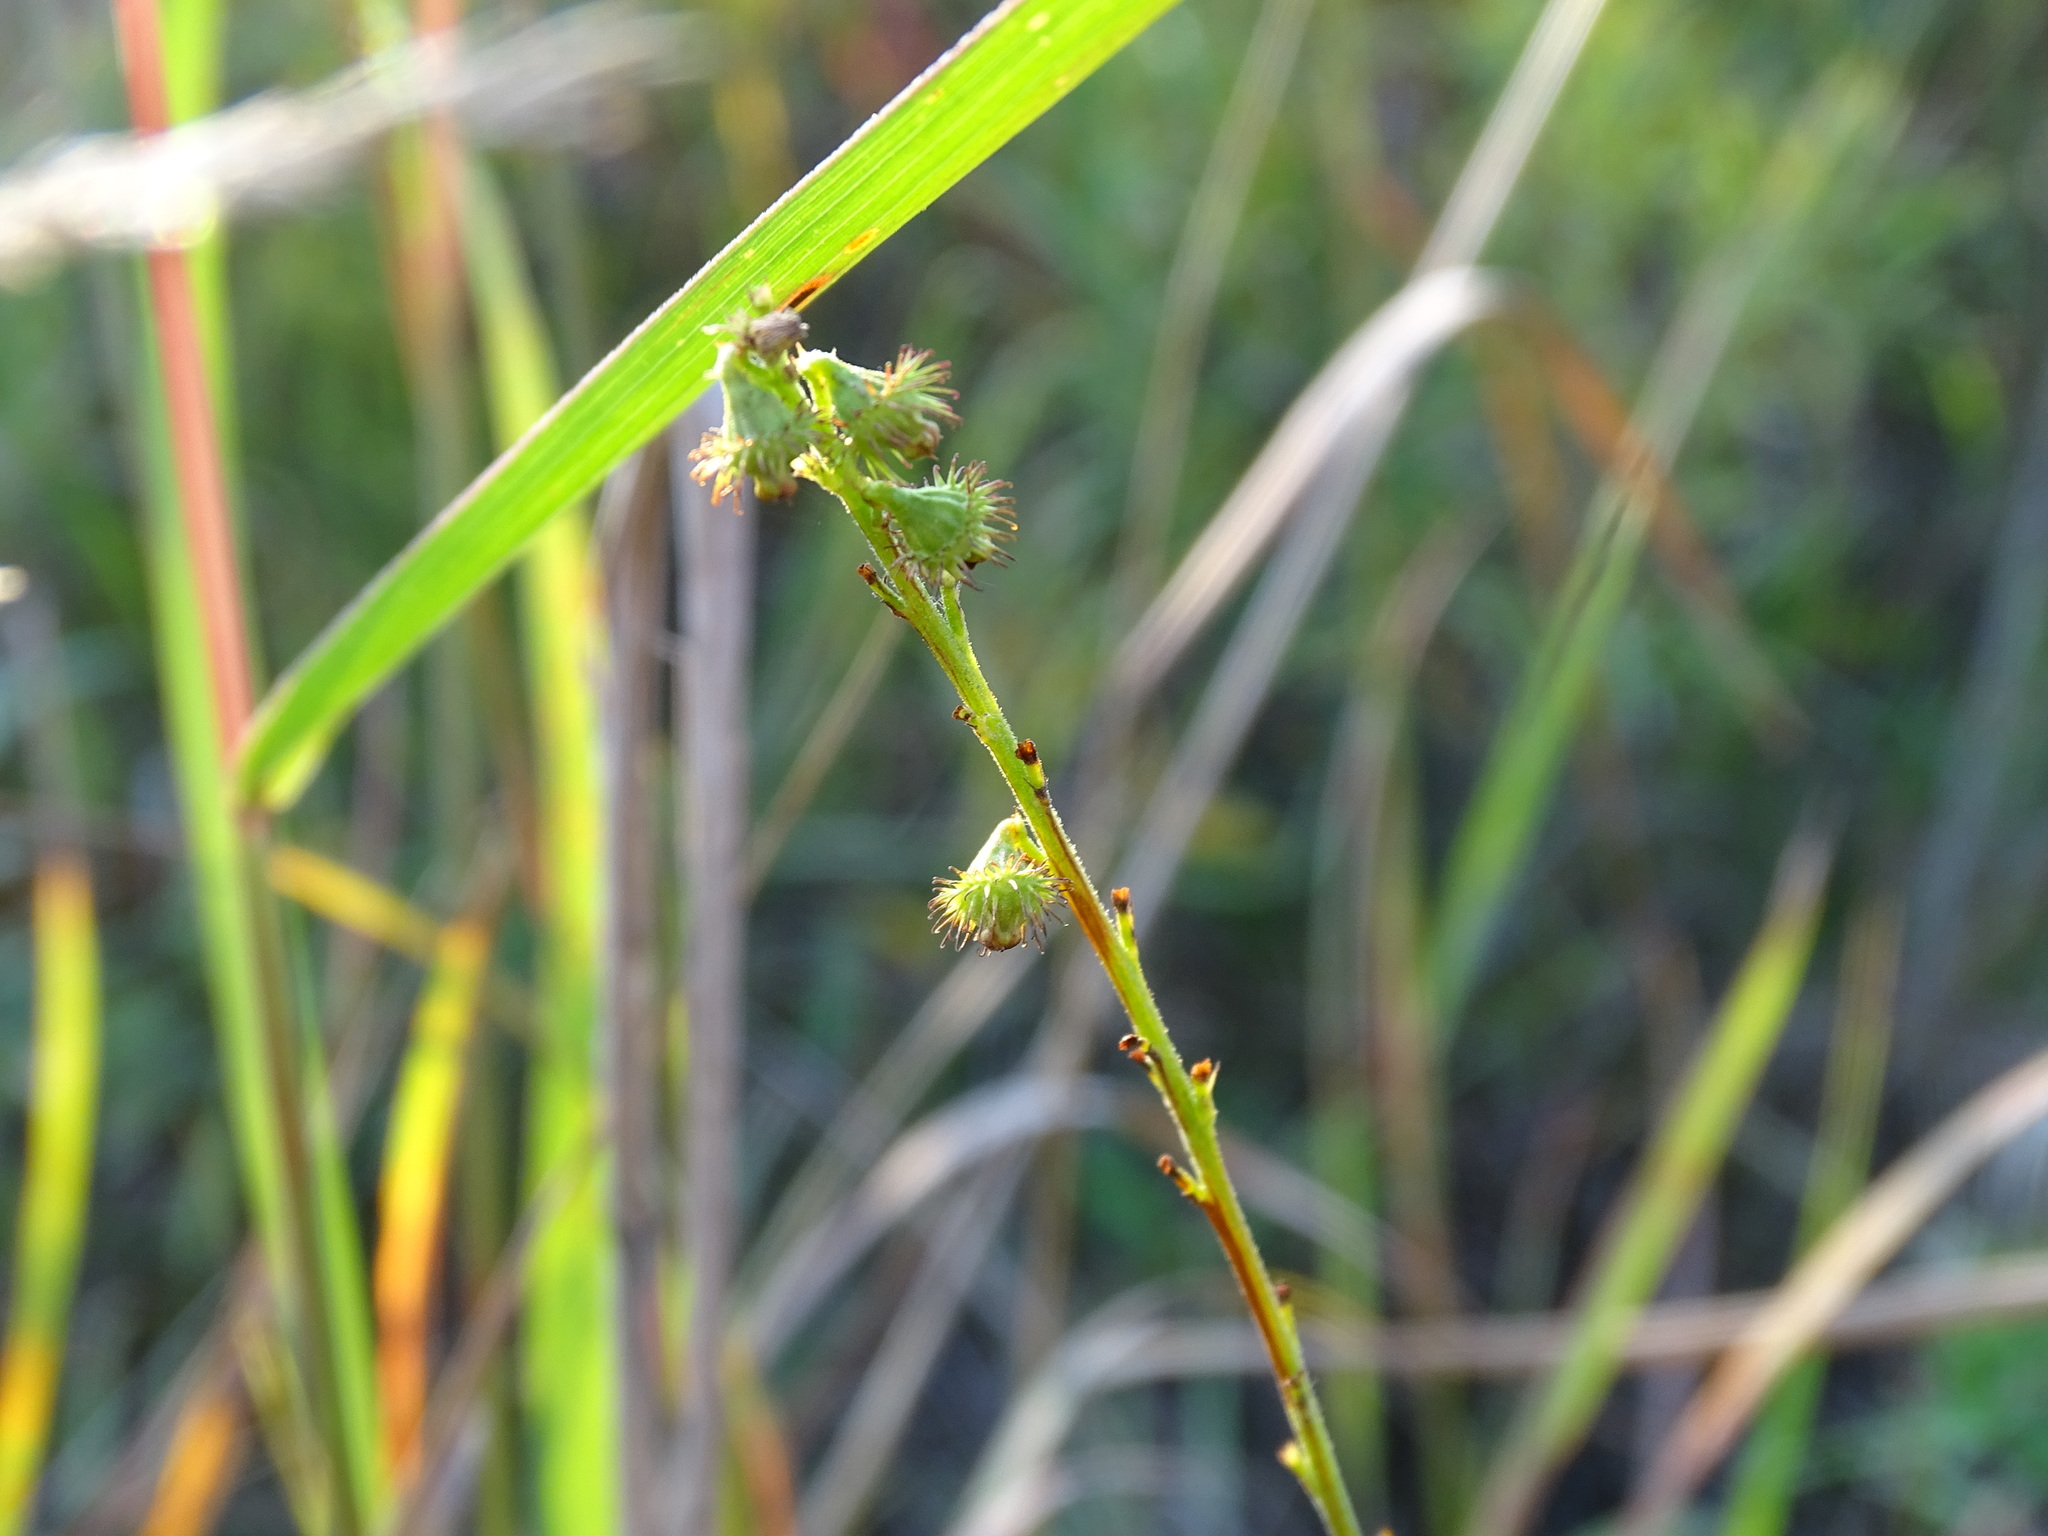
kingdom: Plantae
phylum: Tracheophyta
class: Magnoliopsida
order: Rosales
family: Rosaceae
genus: Agrimonia
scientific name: Agrimonia parviflora
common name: Harvest-lice
